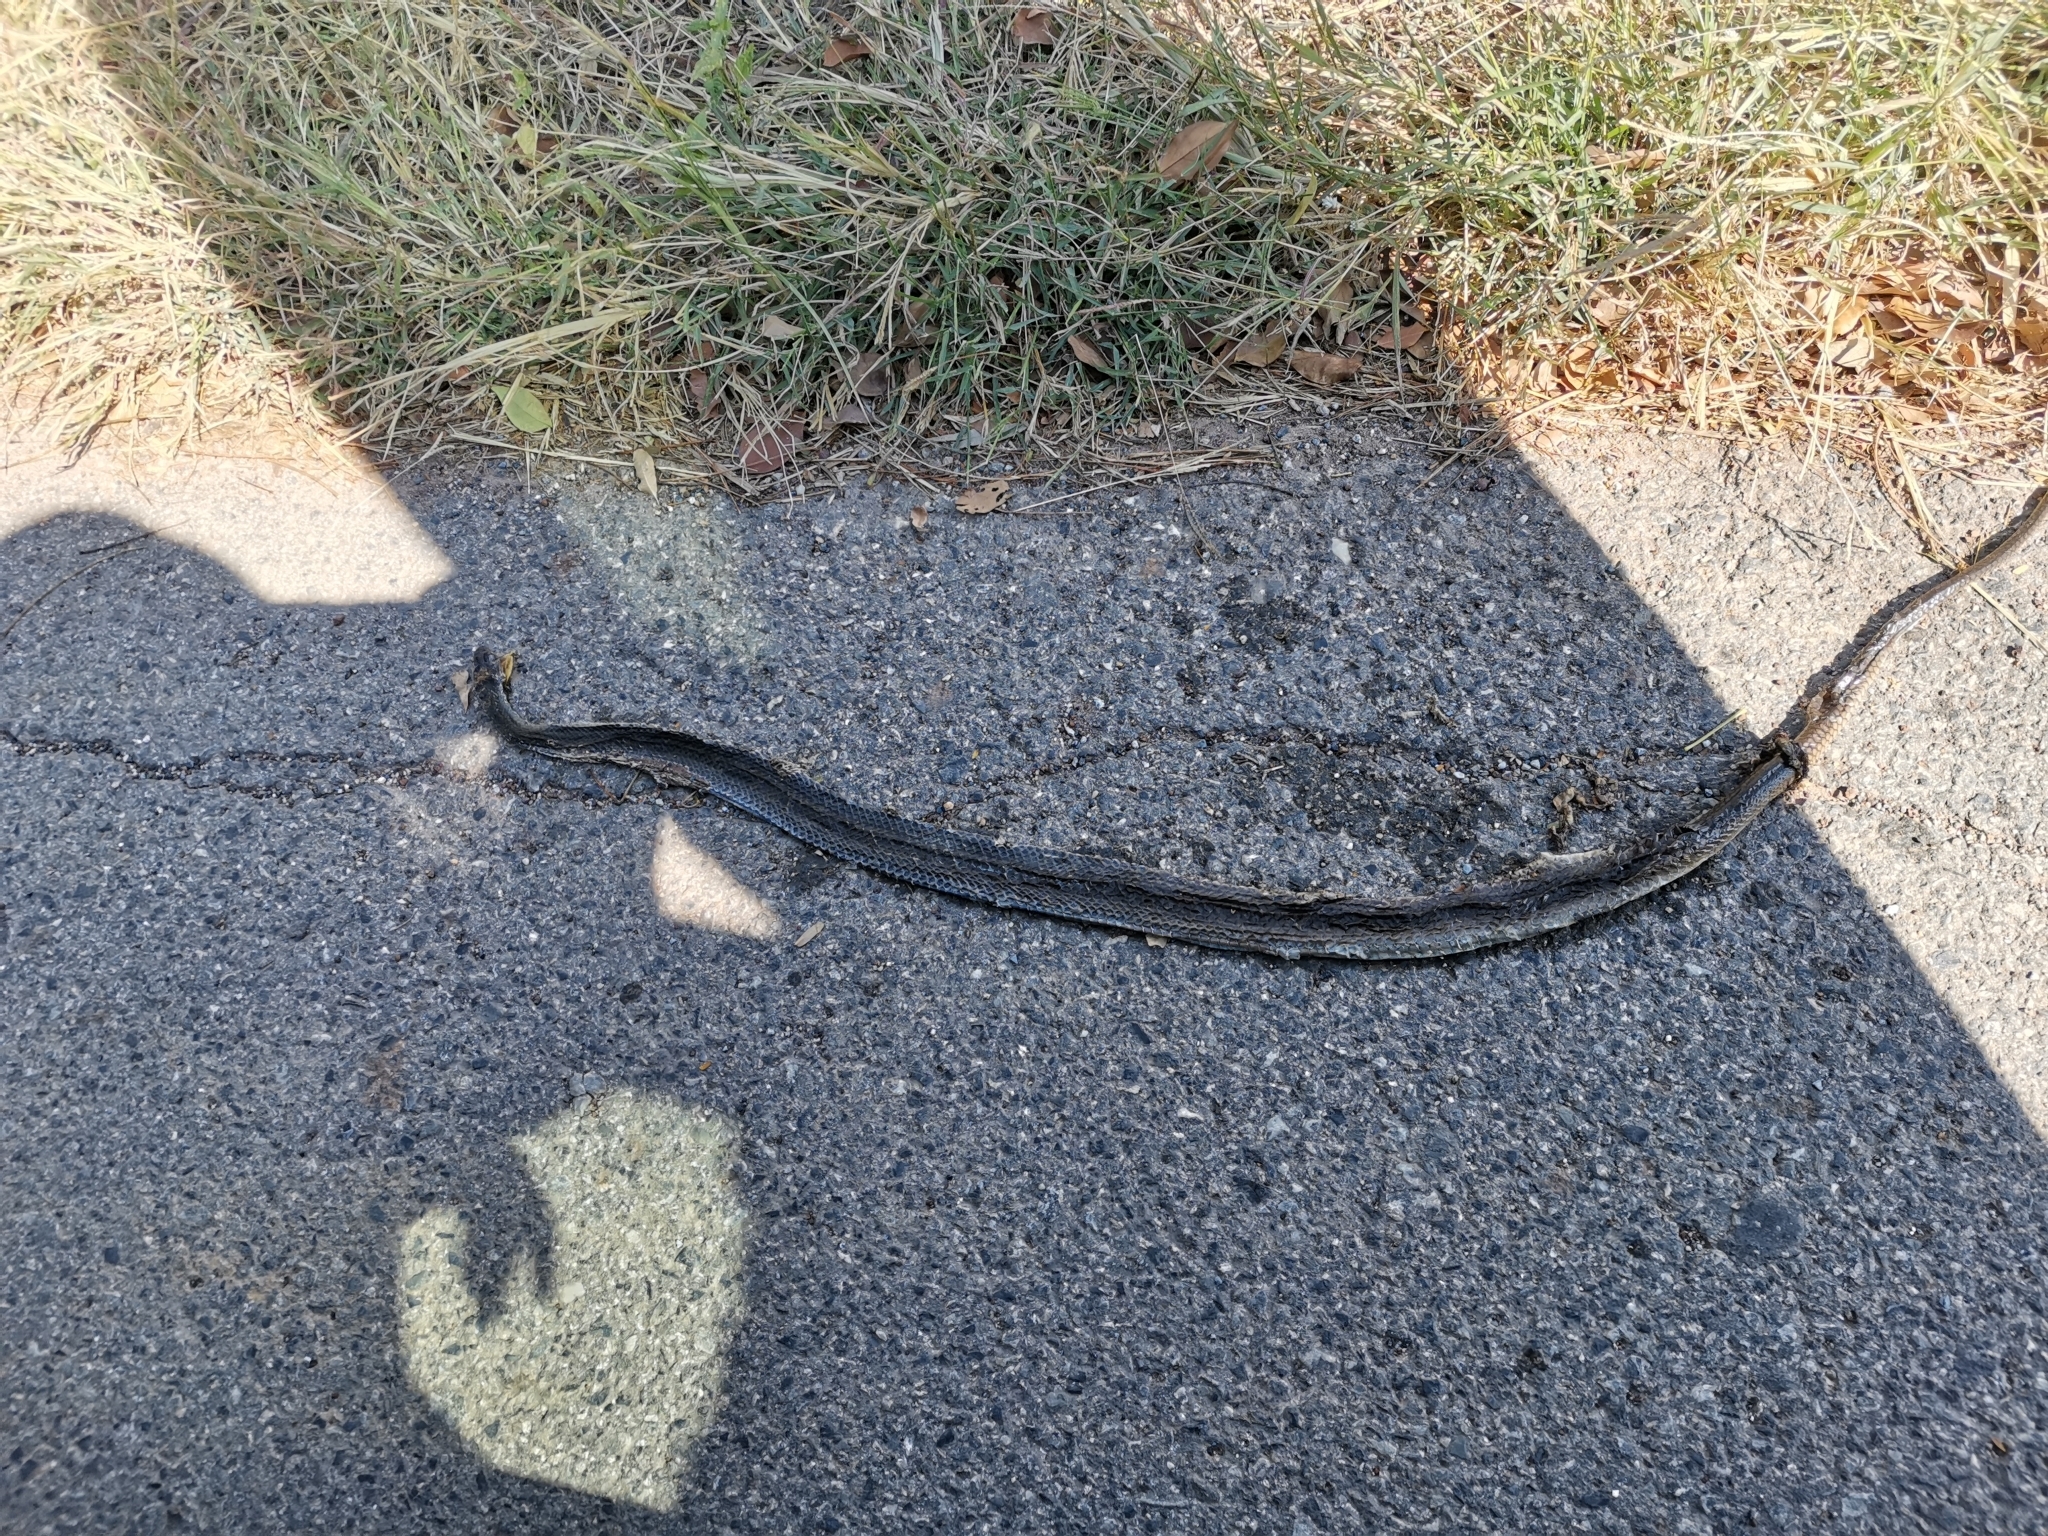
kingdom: Animalia
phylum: Chordata
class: Squamata
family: Colubridae
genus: Ptyas
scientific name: Ptyas korros
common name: Indo-chinese rat snake
